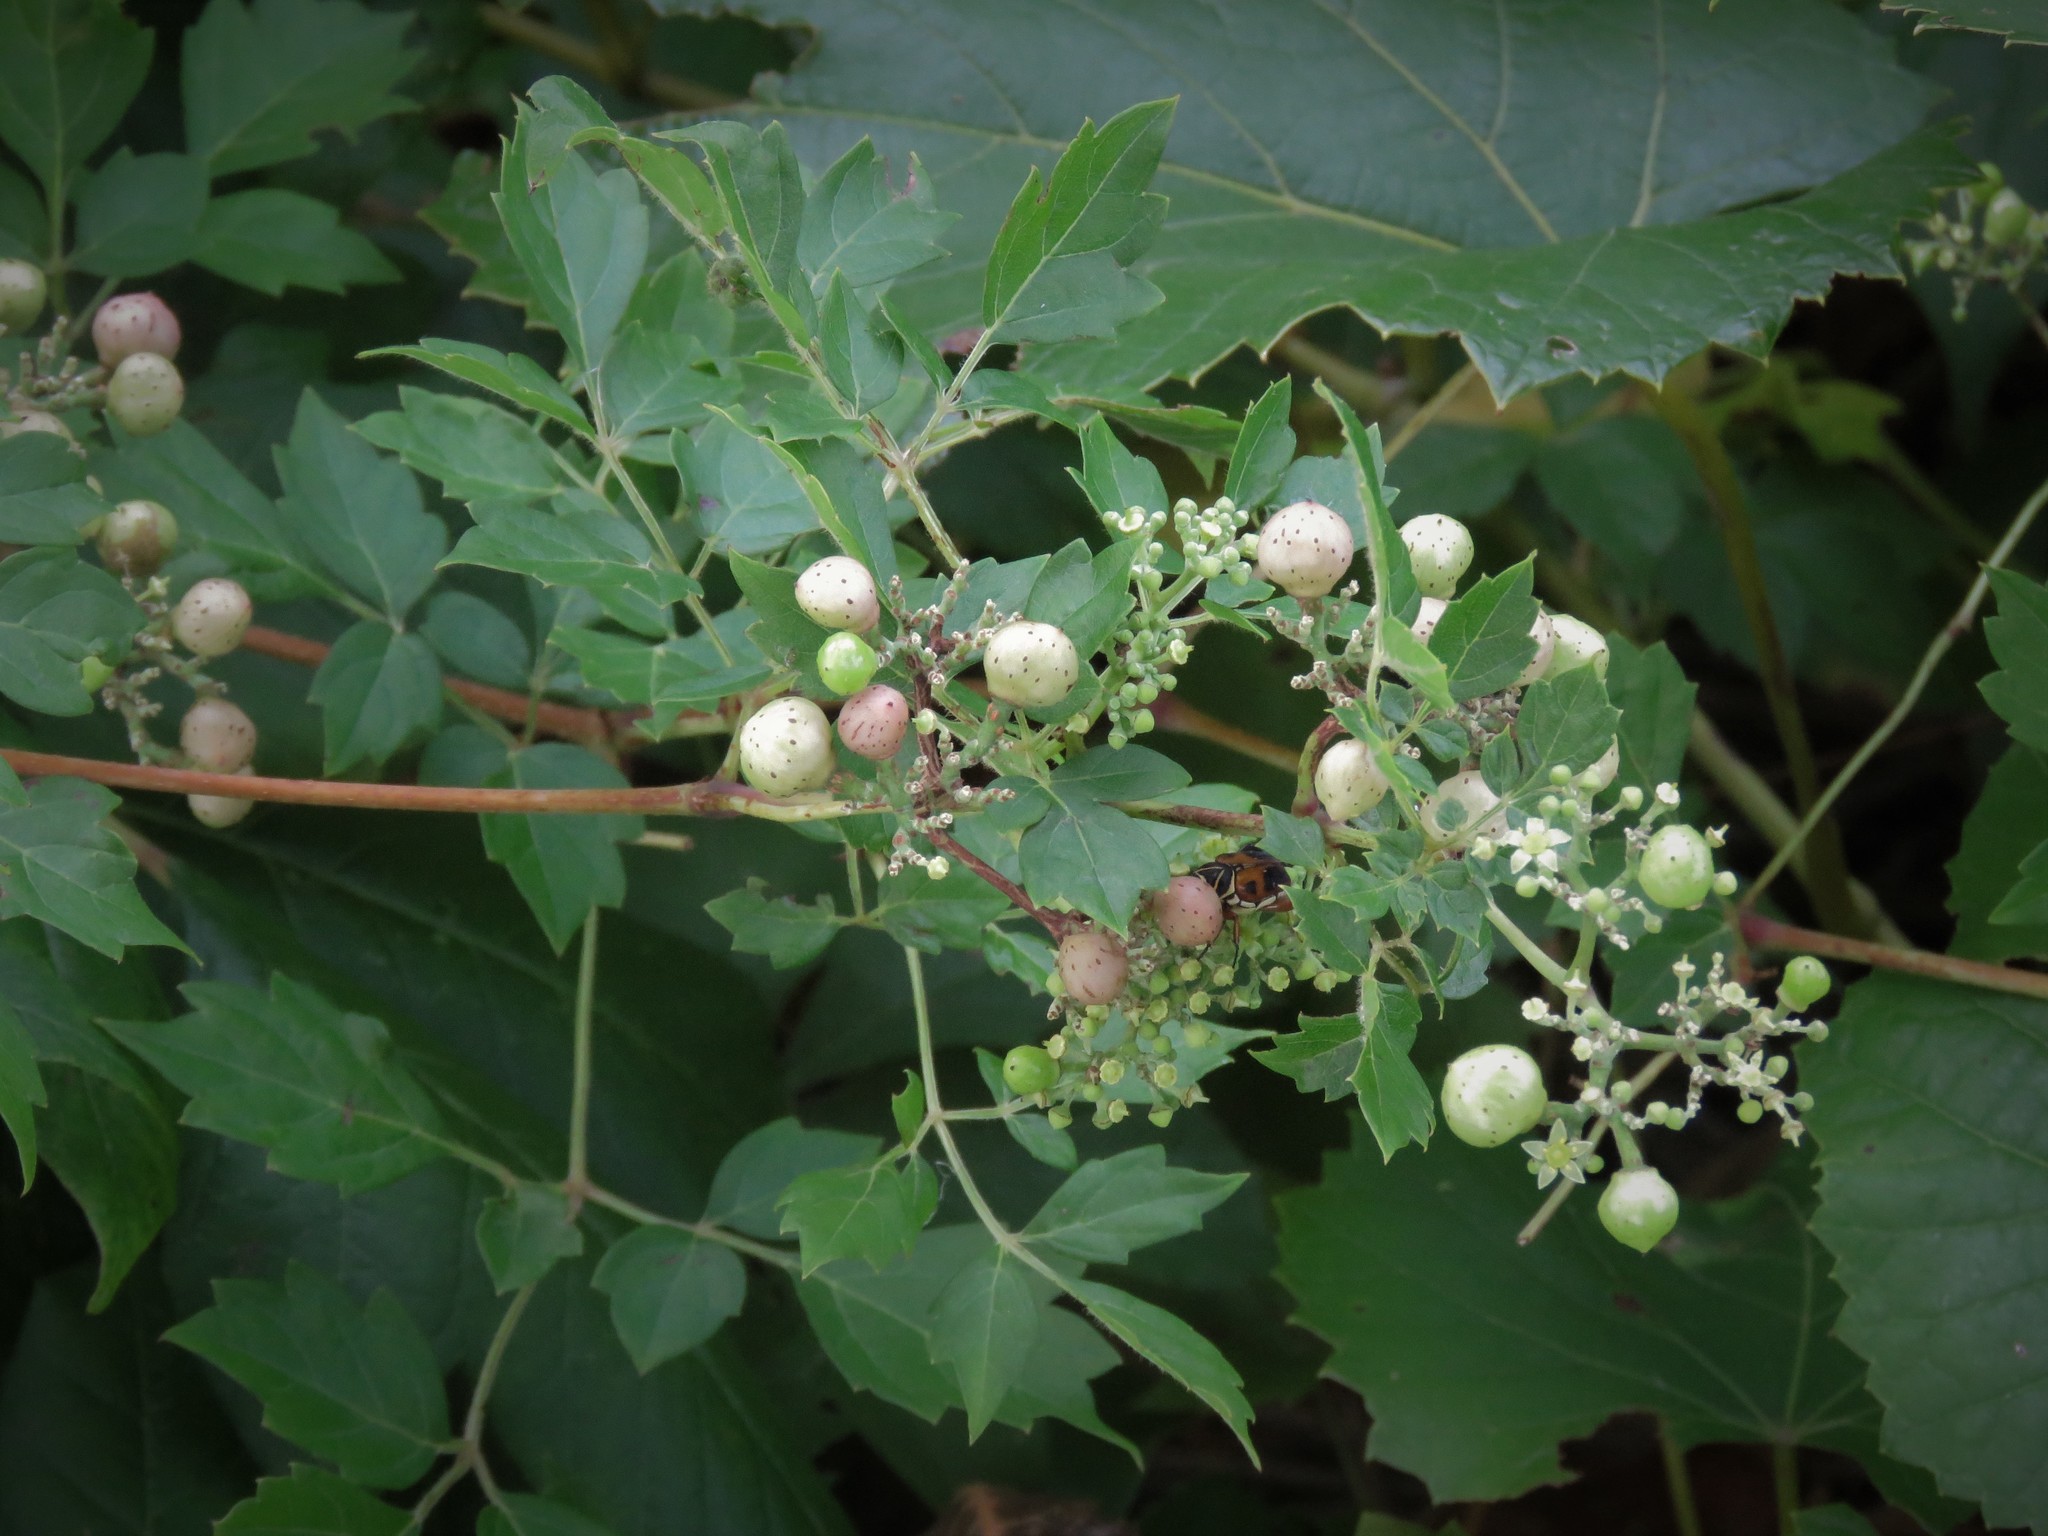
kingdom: Plantae
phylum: Tracheophyta
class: Magnoliopsida
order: Vitales
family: Vitaceae
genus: Nekemias
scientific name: Nekemias arborea
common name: Peppervine
